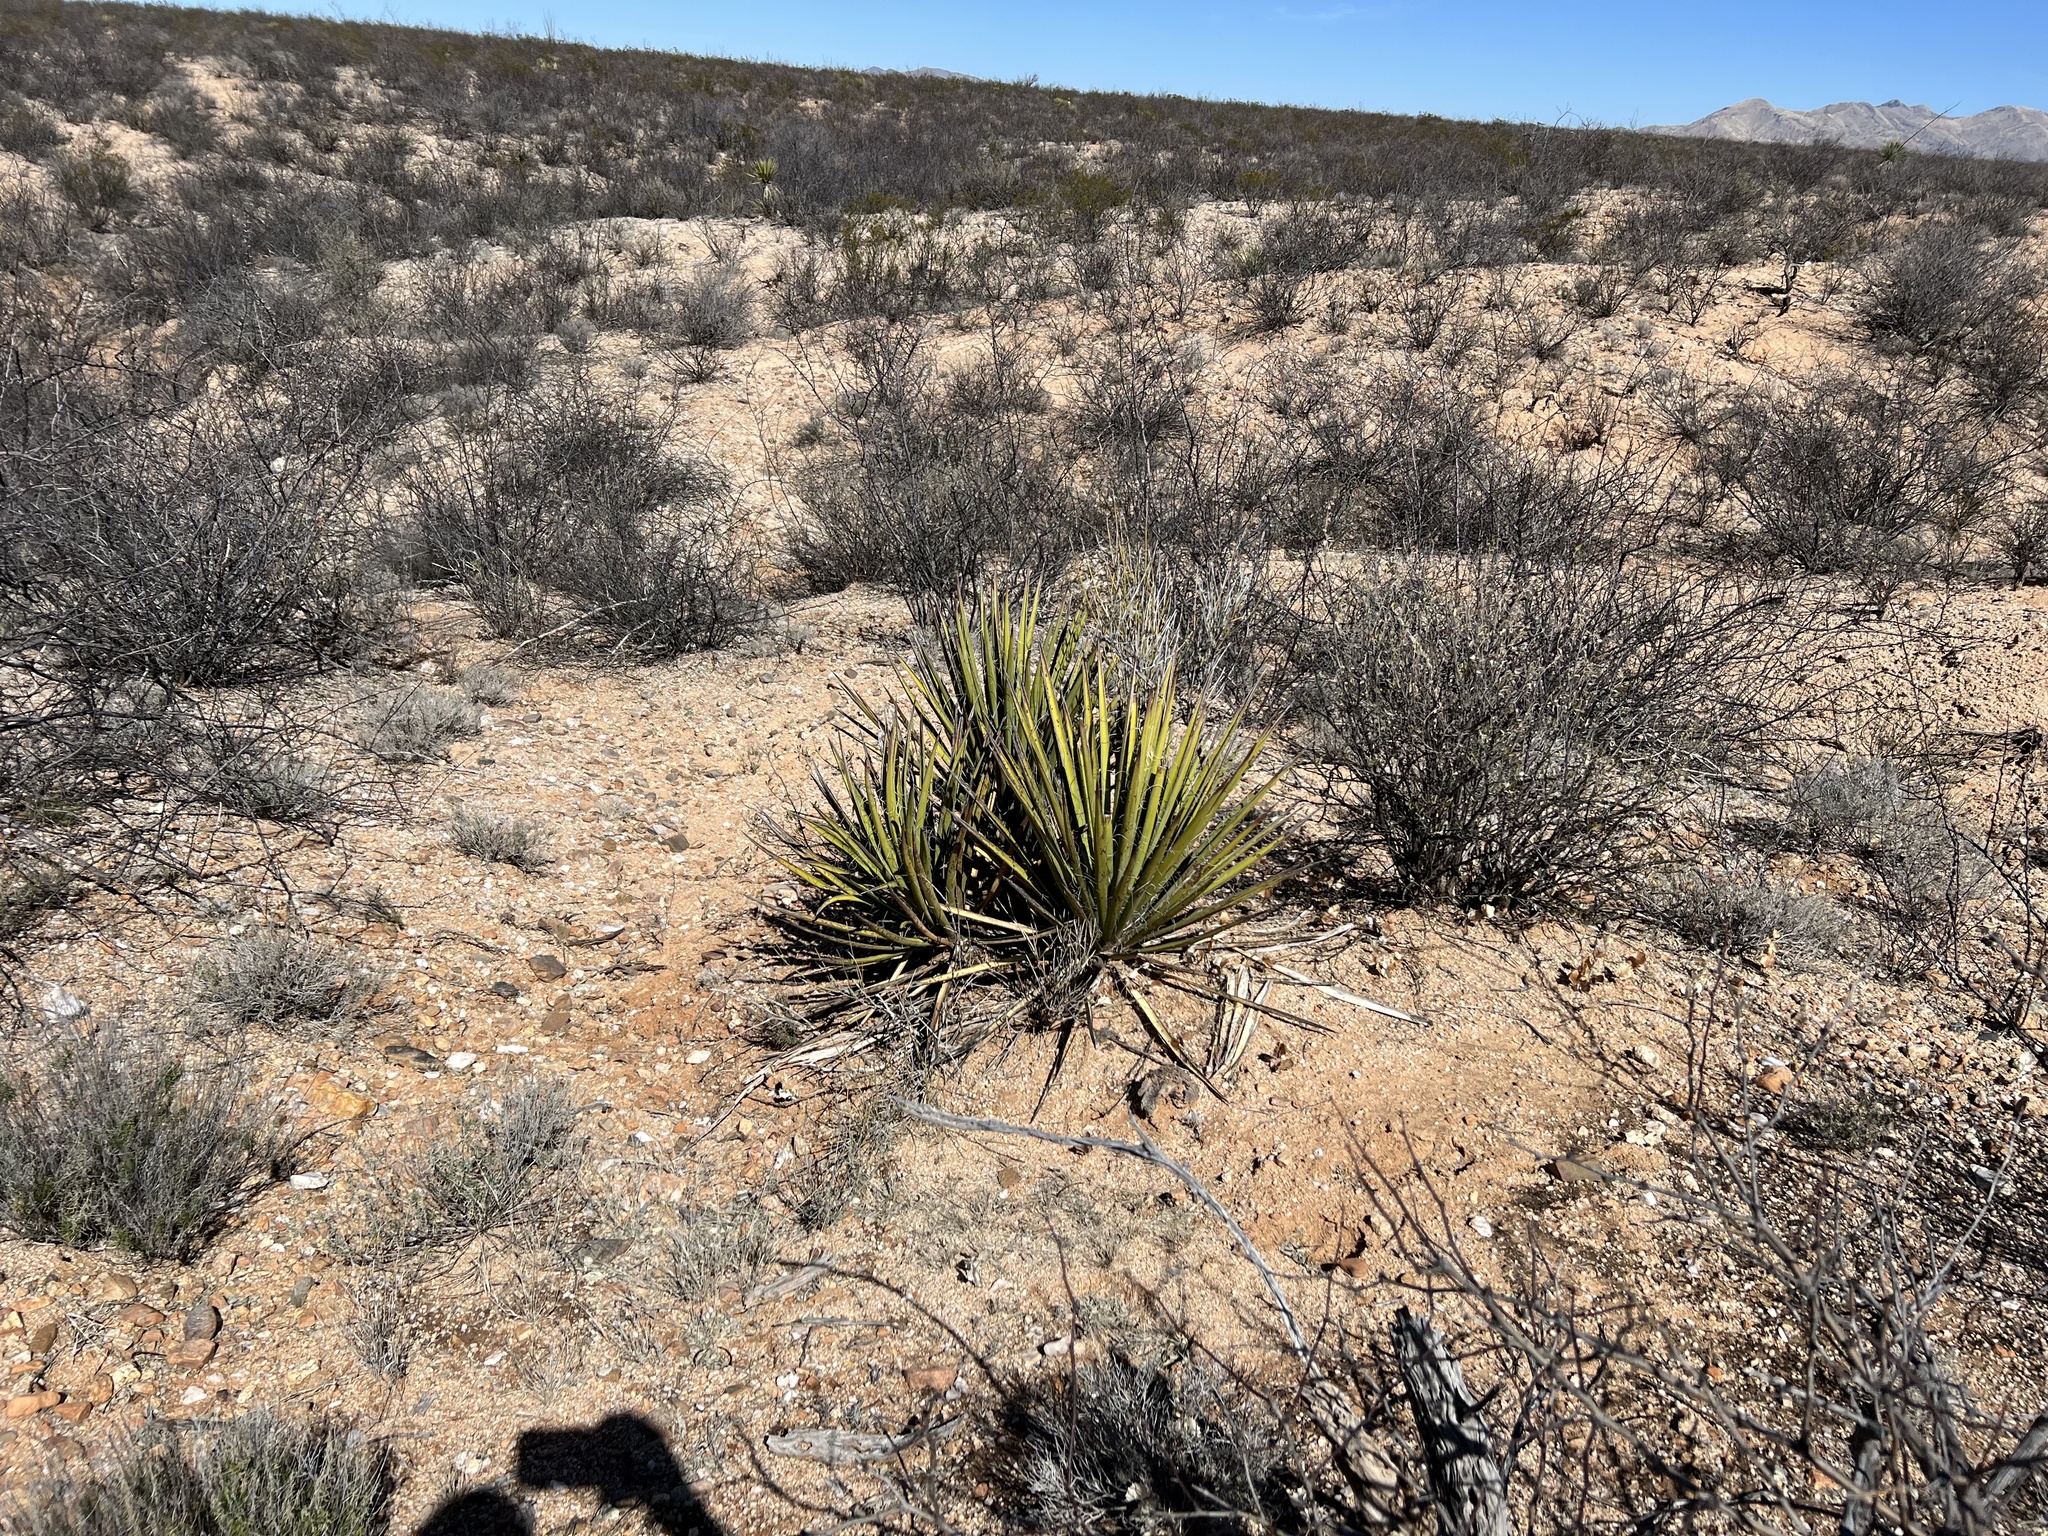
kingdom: Plantae
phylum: Tracheophyta
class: Liliopsida
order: Asparagales
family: Asparagaceae
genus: Yucca
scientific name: Yucca baccata
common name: Banana yucca
